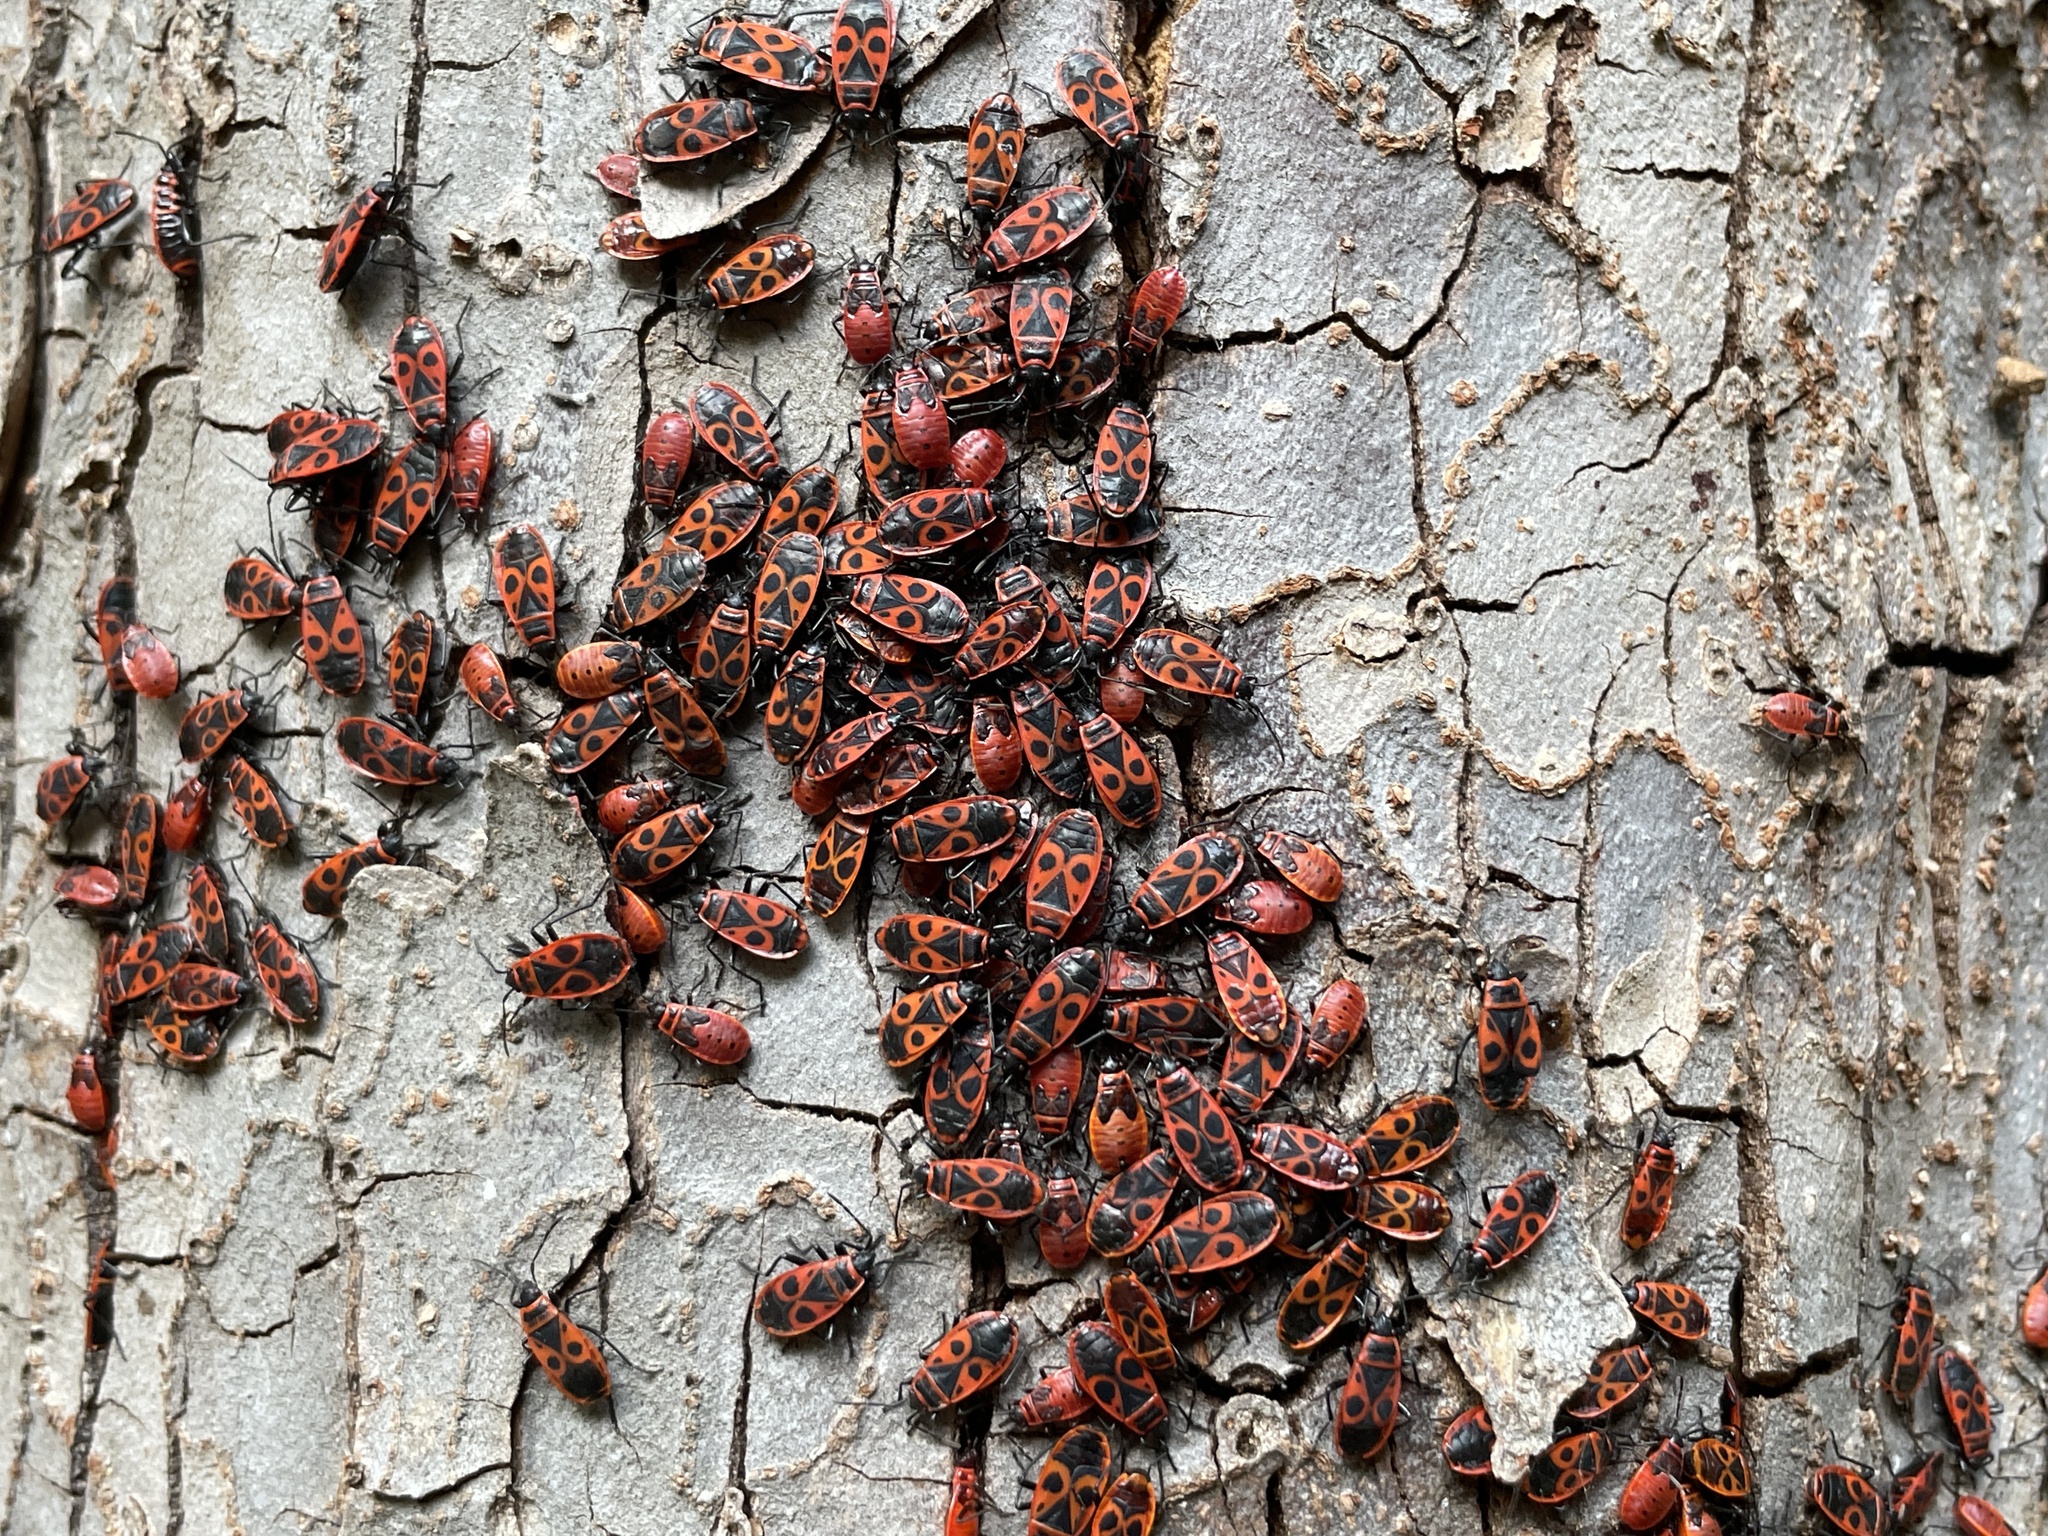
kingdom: Animalia
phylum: Arthropoda
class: Insecta
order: Hemiptera
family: Pyrrhocoridae
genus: Pyrrhocoris
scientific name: Pyrrhocoris apterus
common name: Firebug
